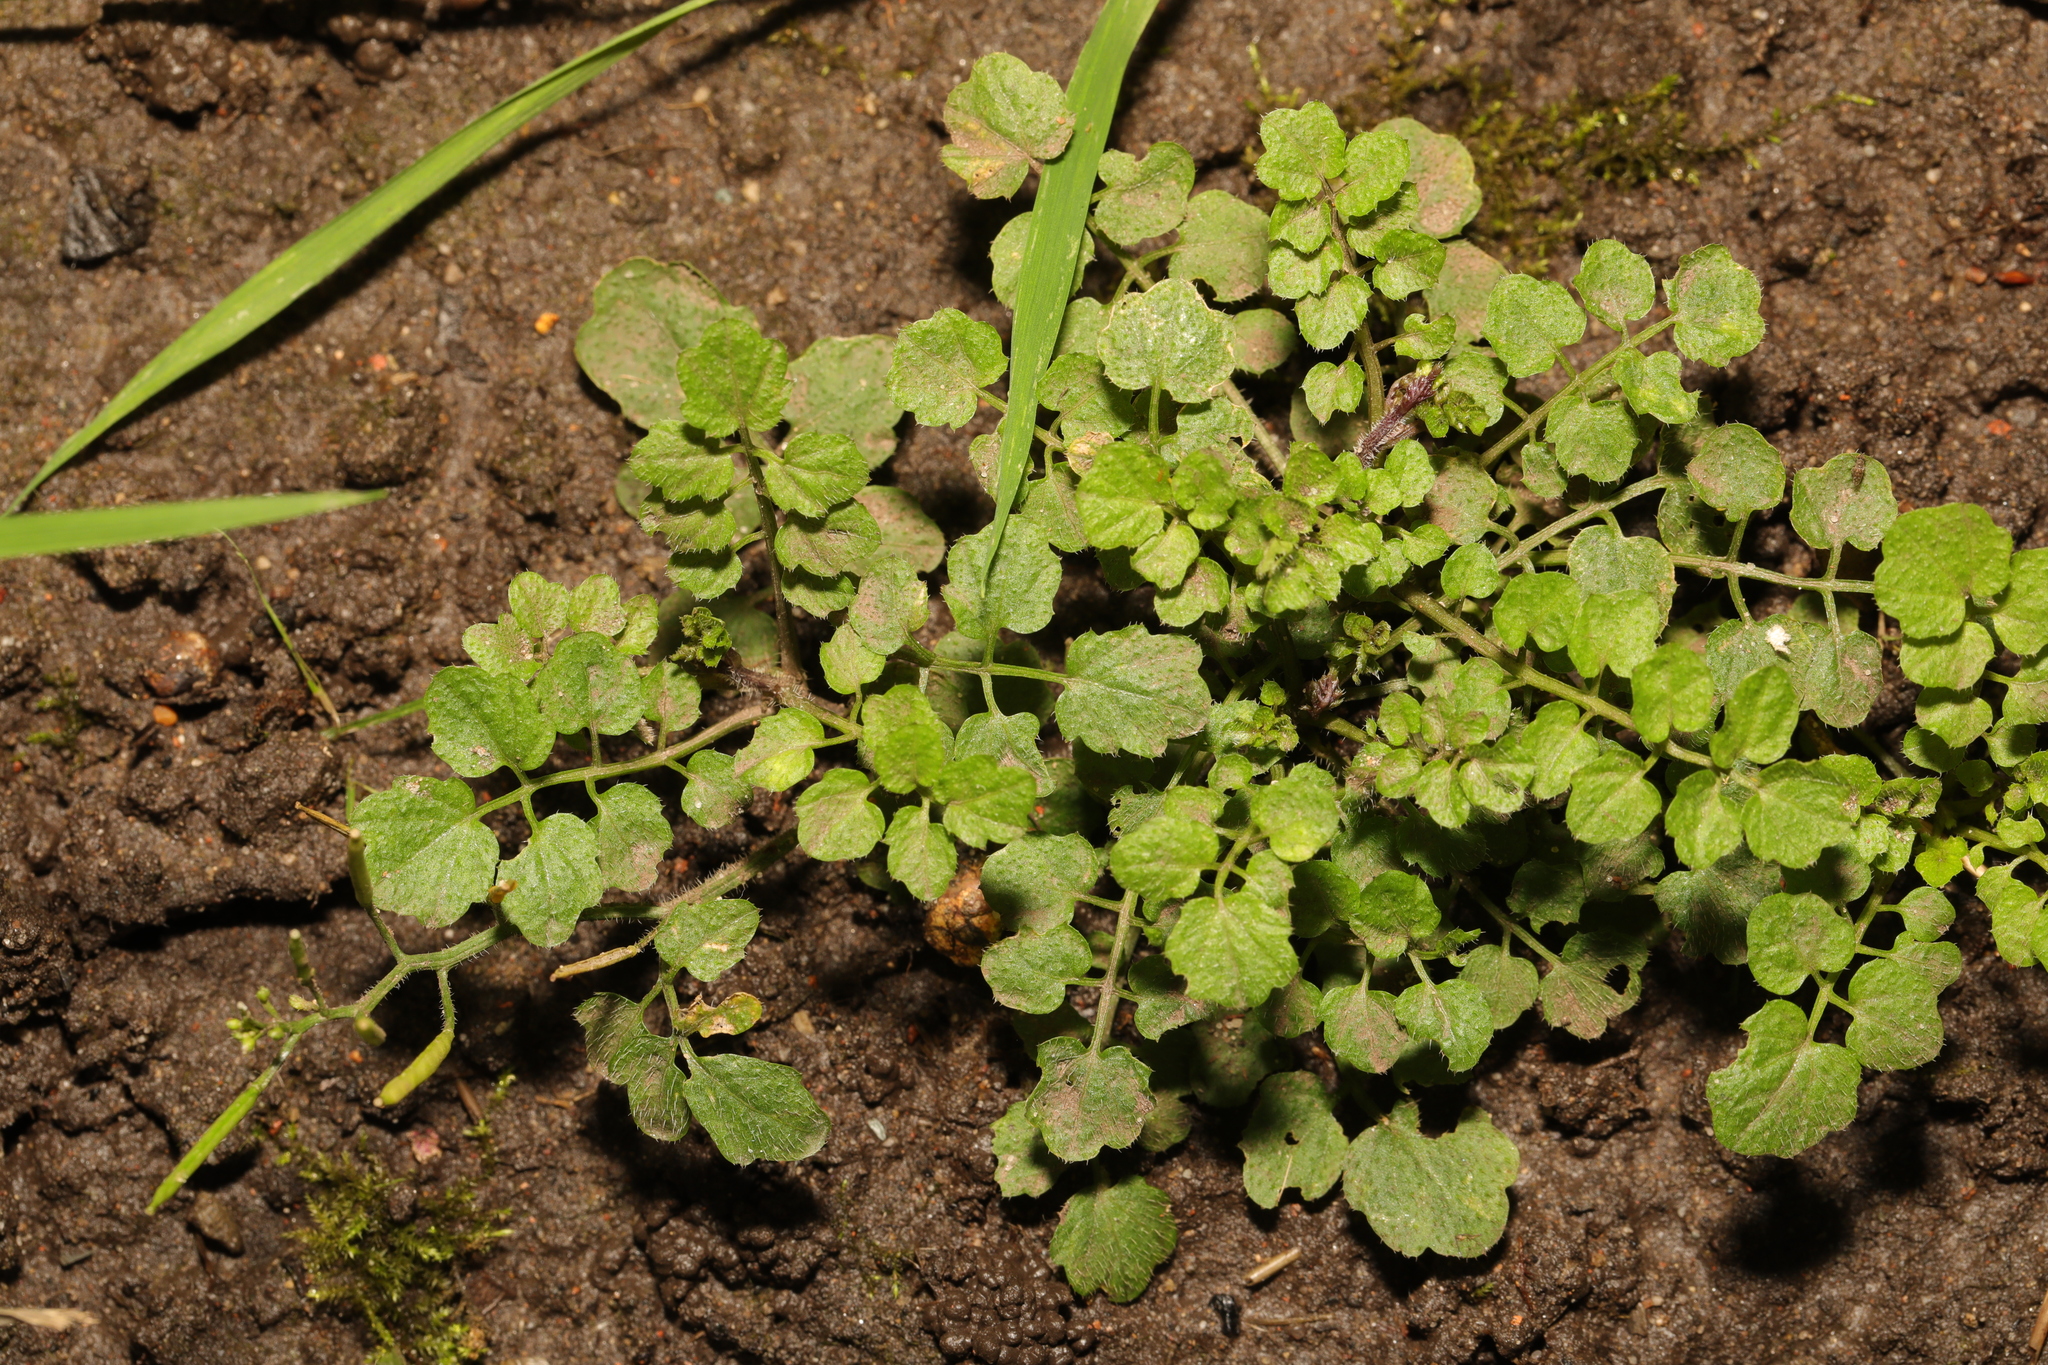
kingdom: Plantae
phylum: Tracheophyta
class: Magnoliopsida
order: Brassicales
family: Brassicaceae
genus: Cardamine
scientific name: Cardamine flexuosa
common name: Woodland bittercress
